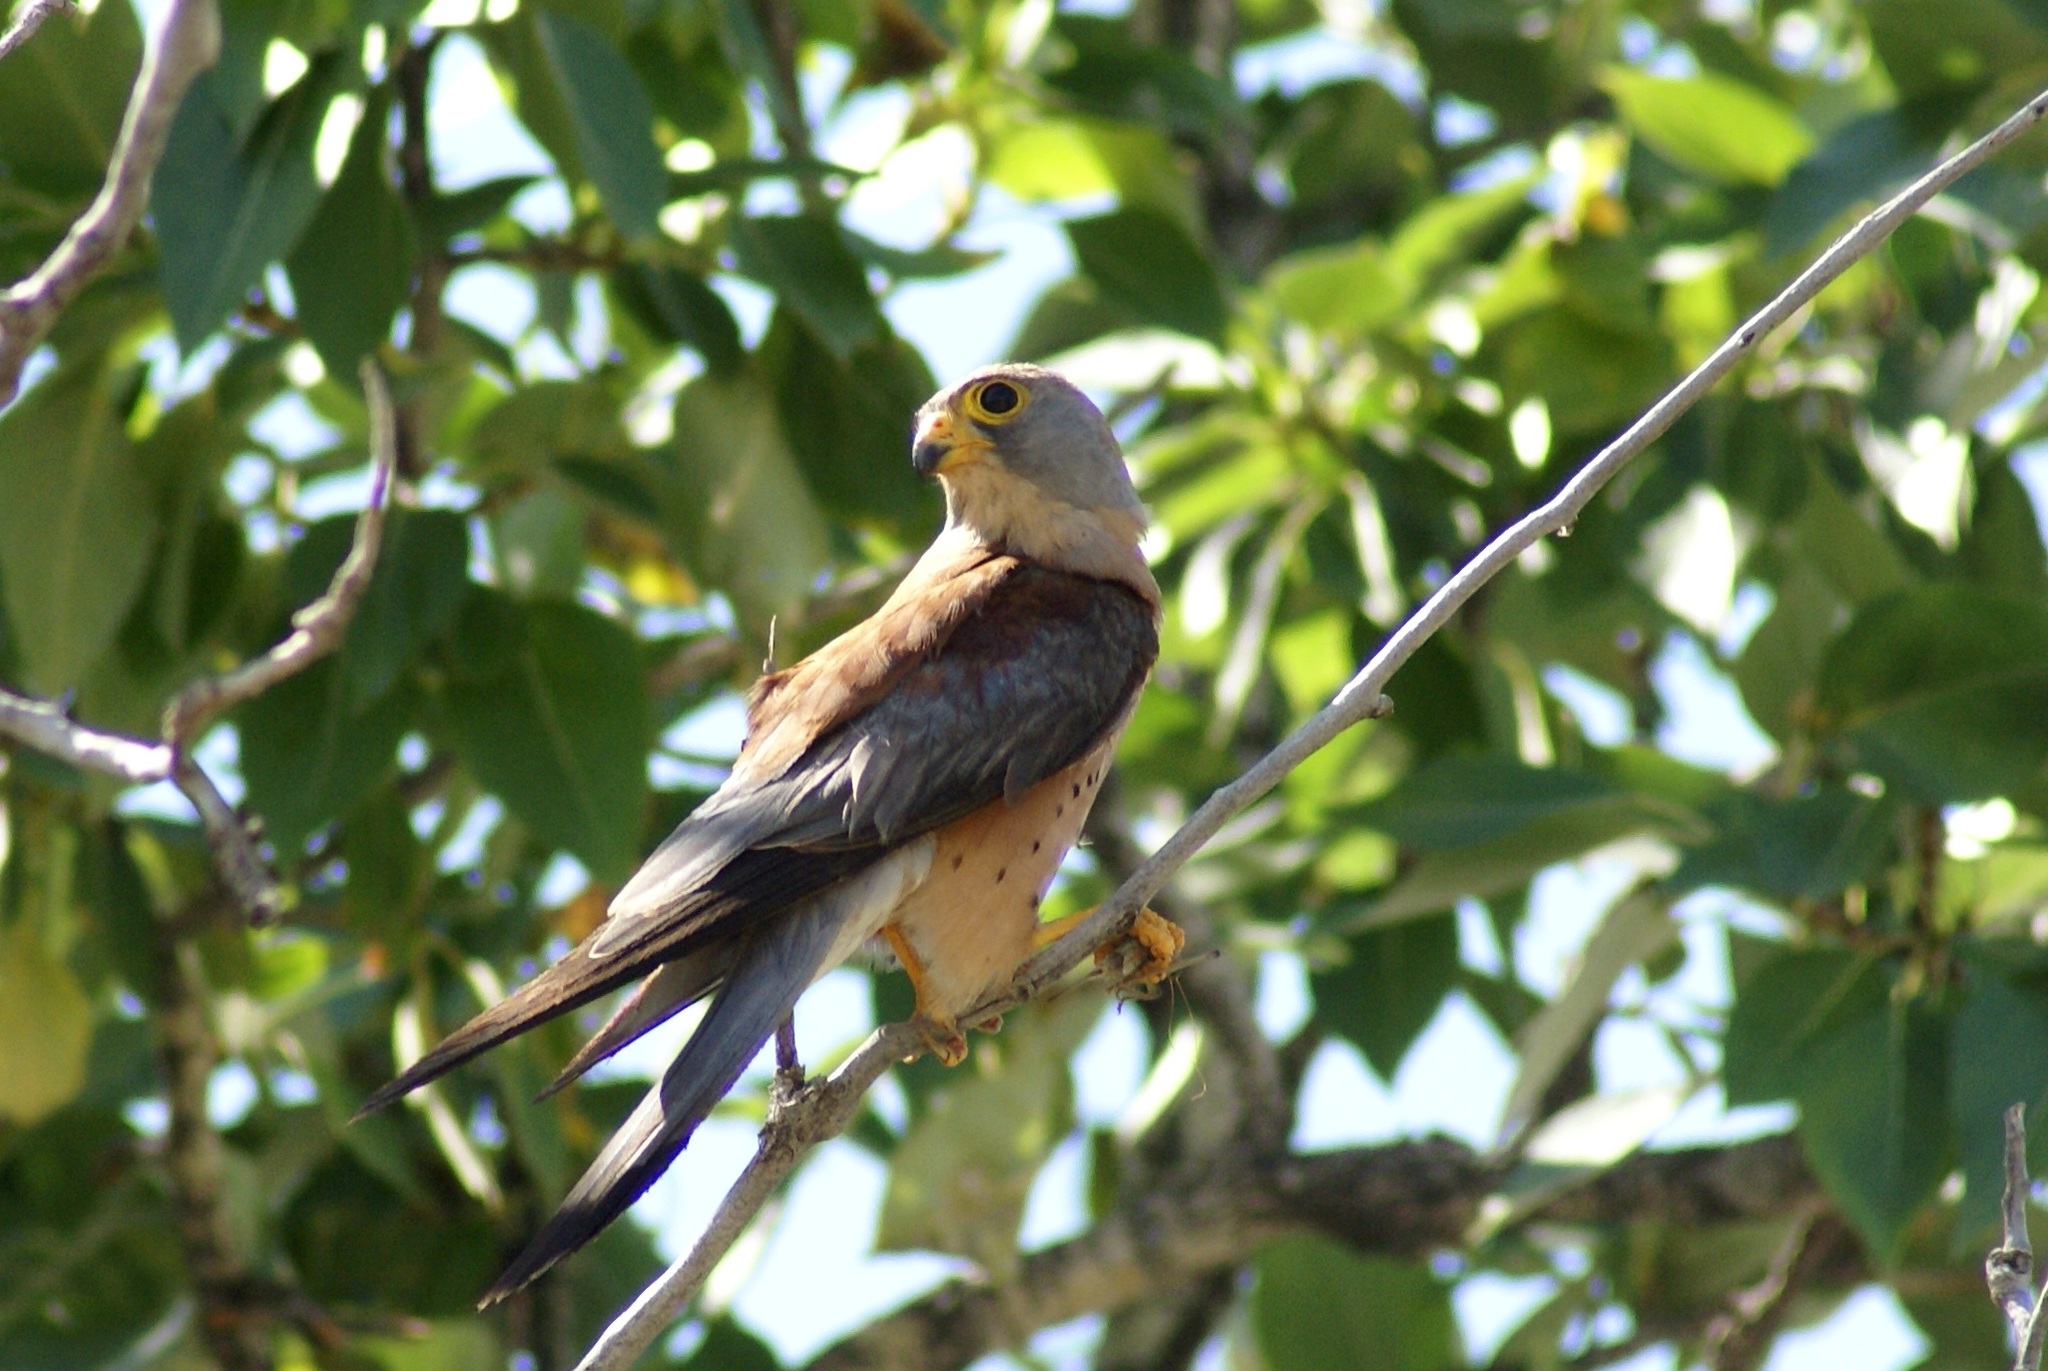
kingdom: Animalia
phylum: Chordata
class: Aves
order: Falconiformes
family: Falconidae
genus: Falco
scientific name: Falco naumanni
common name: Lesser kestrel
